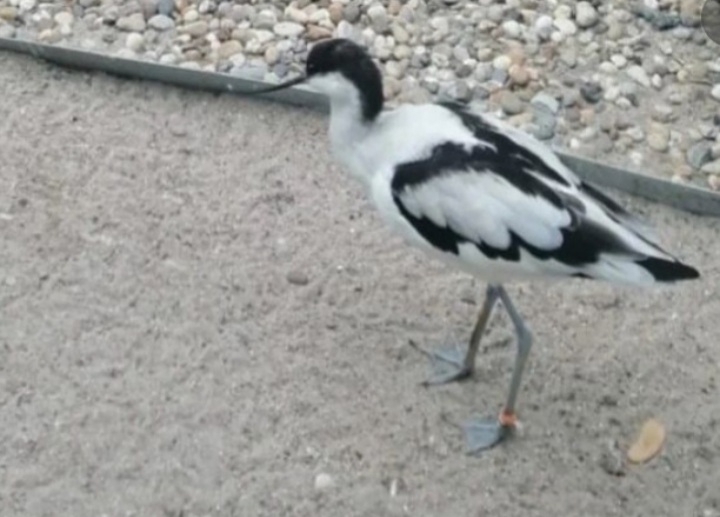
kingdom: Animalia
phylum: Chordata
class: Aves
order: Charadriiformes
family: Recurvirostridae
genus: Recurvirostra
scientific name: Recurvirostra avosetta
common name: Pied avocet
